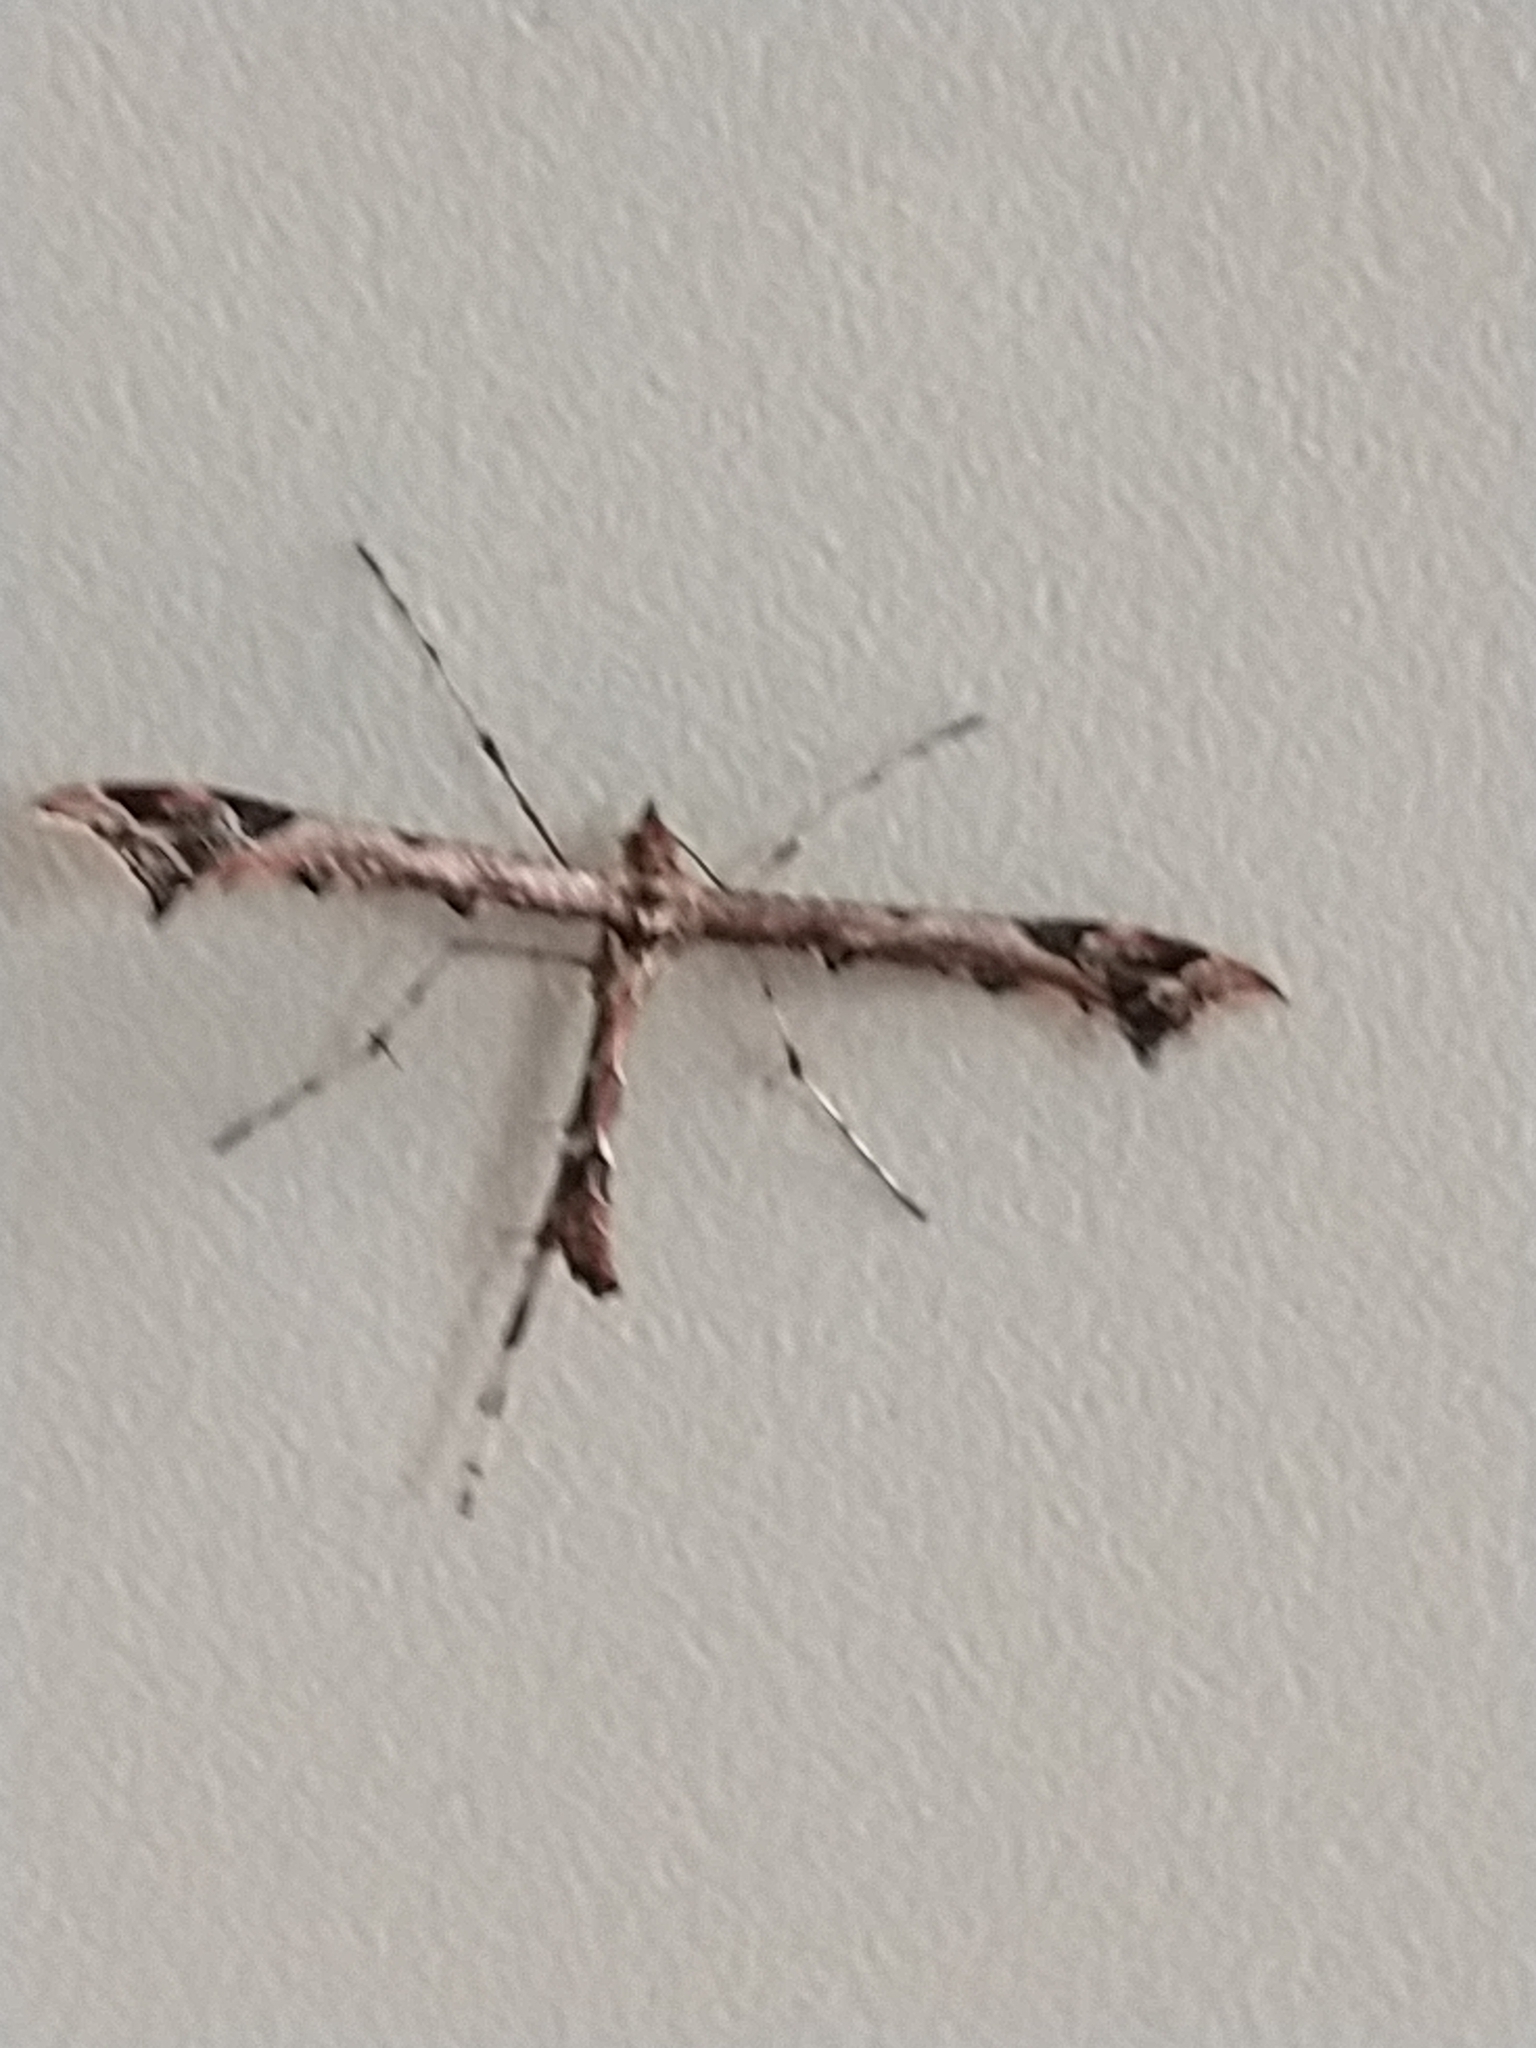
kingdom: Animalia
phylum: Arthropoda
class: Insecta
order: Lepidoptera
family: Pterophoridae
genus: Amblyptilia
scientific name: Amblyptilia acanthadactyla
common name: Beautiful plume
